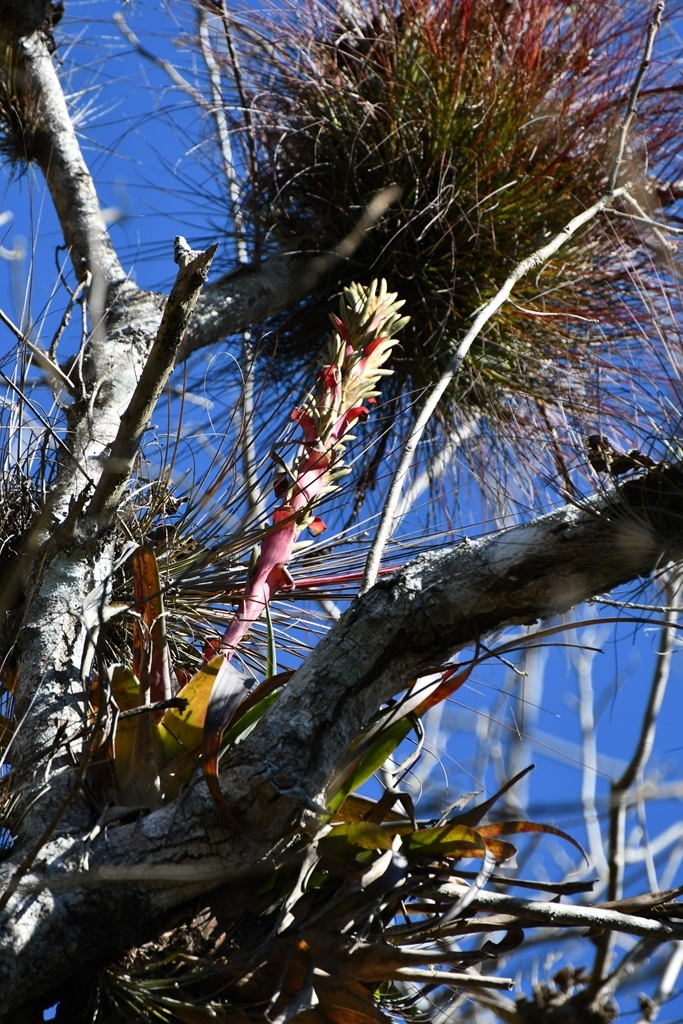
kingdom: Plantae
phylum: Tracheophyta
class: Liliopsida
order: Poales
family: Bromeliaceae
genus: Tillandsia
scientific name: Tillandsia belloensis
